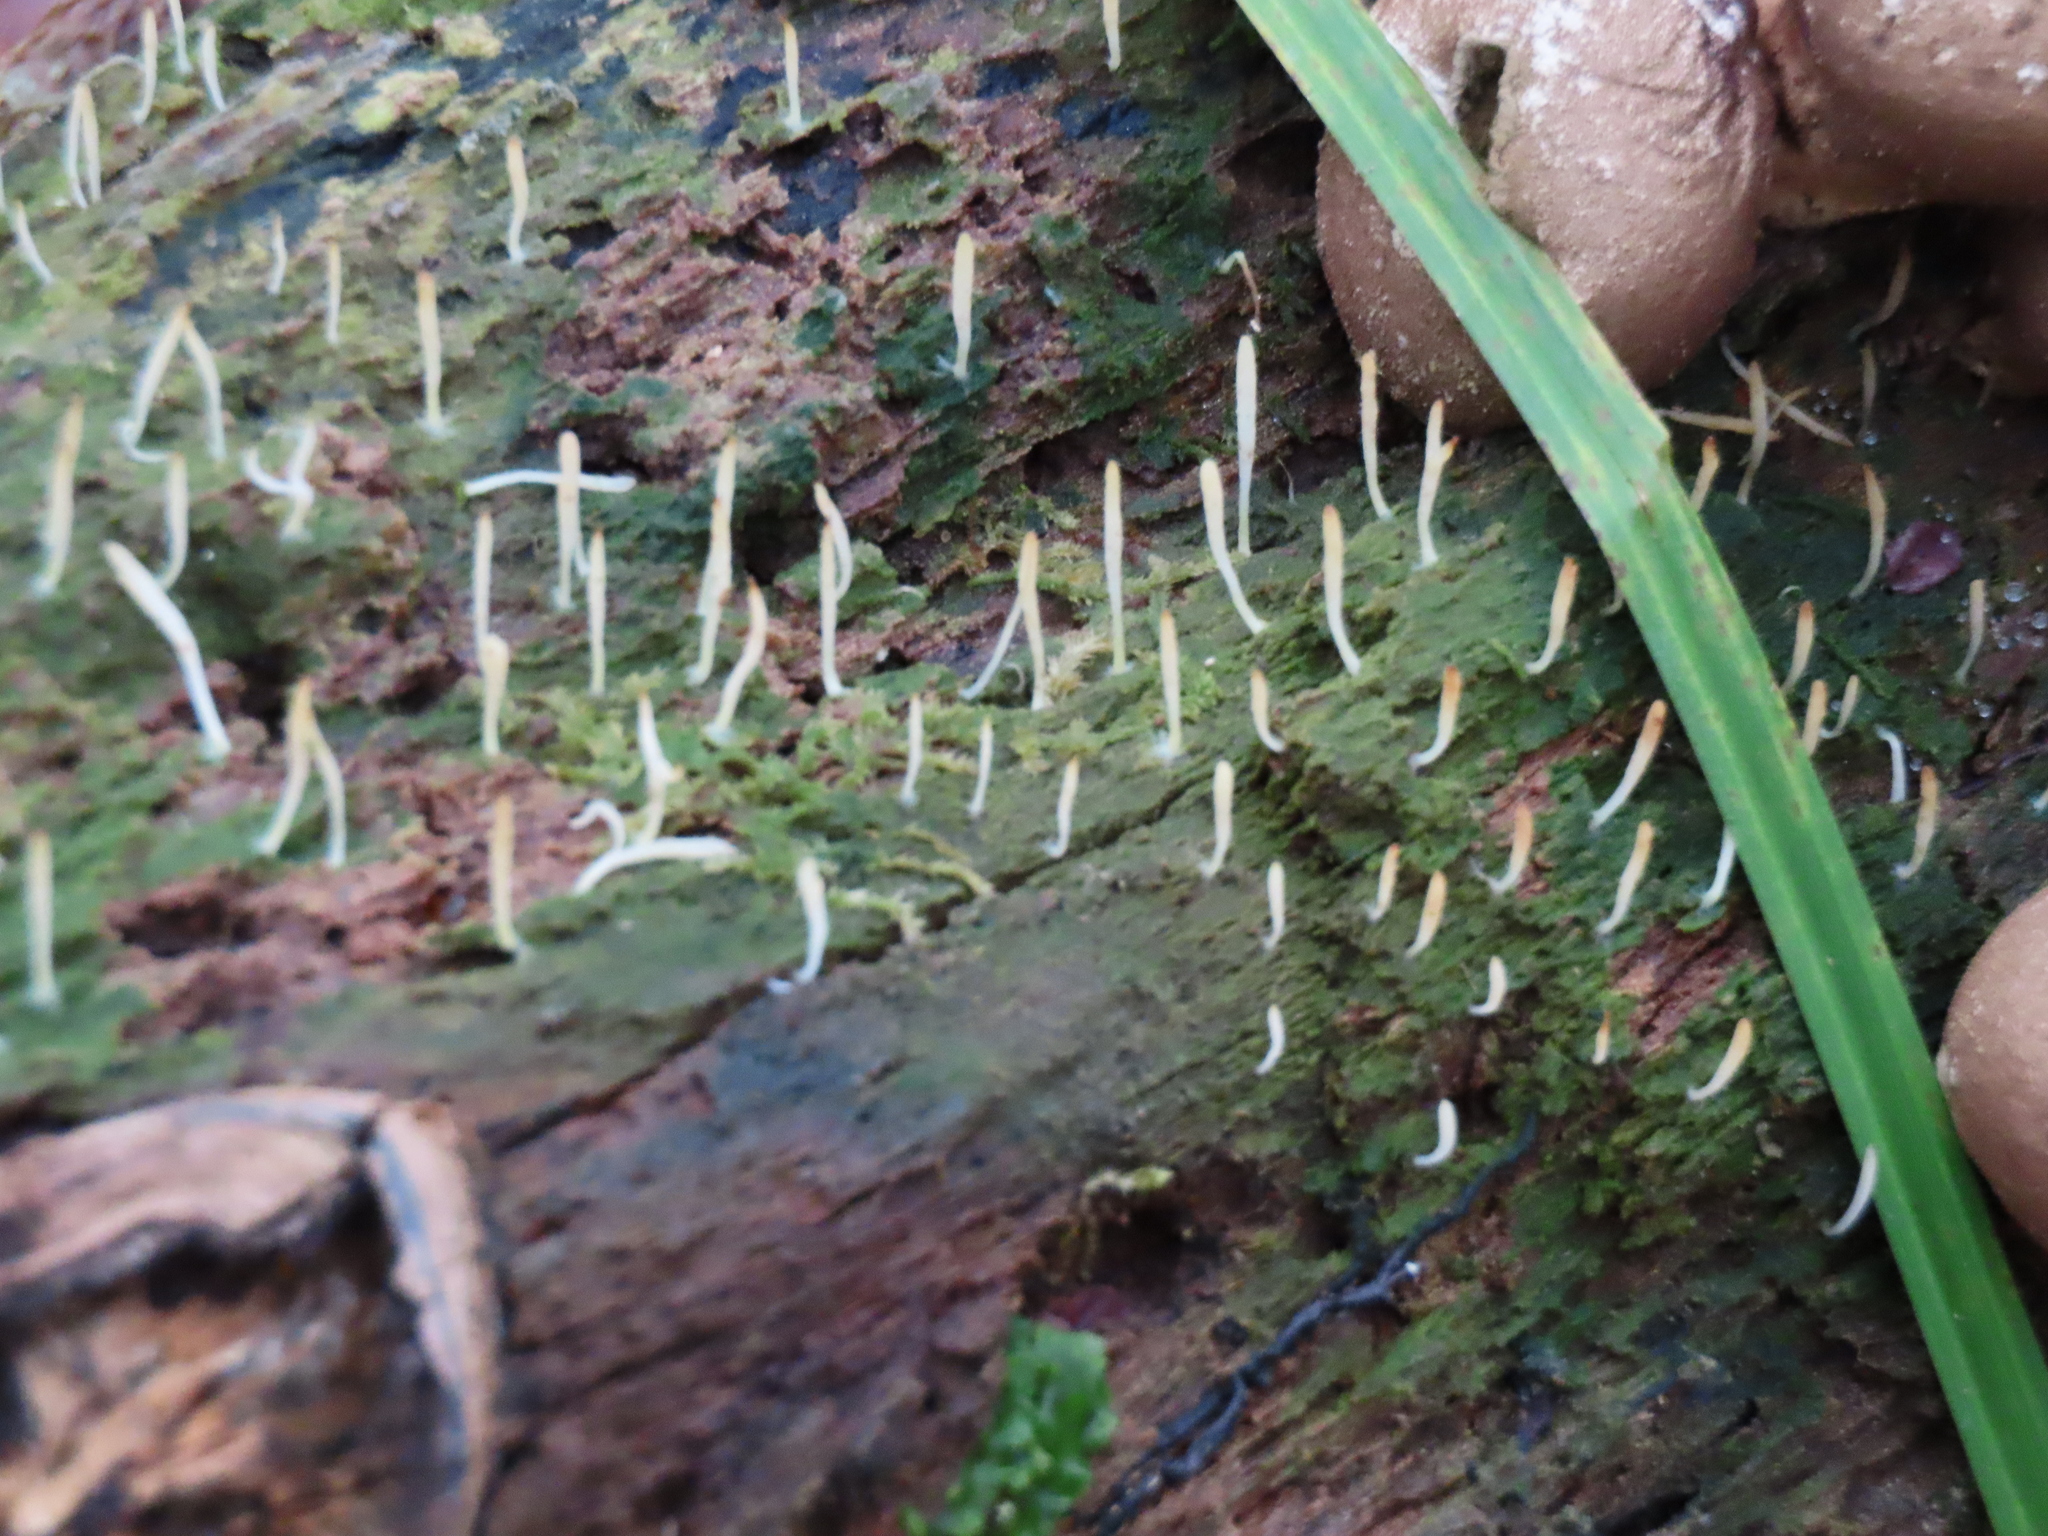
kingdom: Fungi
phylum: Basidiomycota
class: Agaricomycetes
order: Cantharellales
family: Hydnaceae
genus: Multiclavula
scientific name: Multiclavula mucida
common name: White green-algae coral
